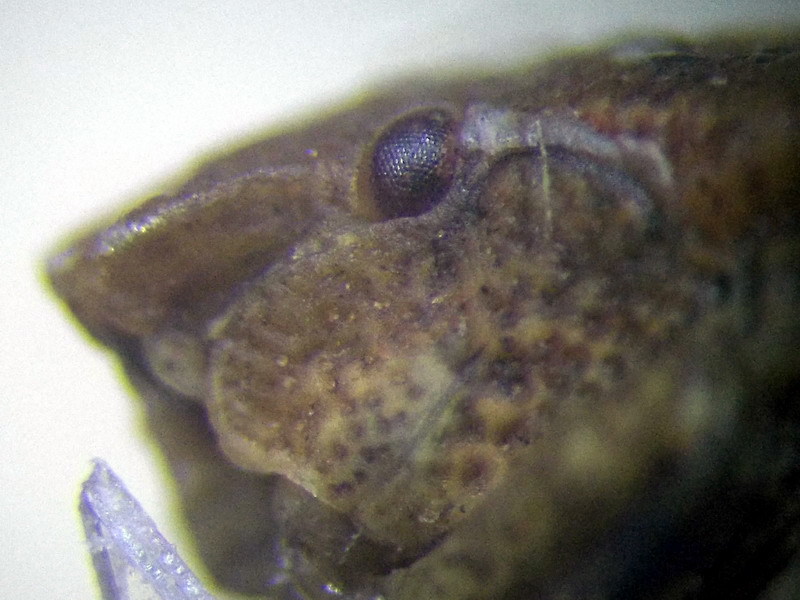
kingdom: Animalia
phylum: Arthropoda
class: Insecta
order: Hemiptera
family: Pentatomidae
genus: Ventocoris
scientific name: Ventocoris halophilum
